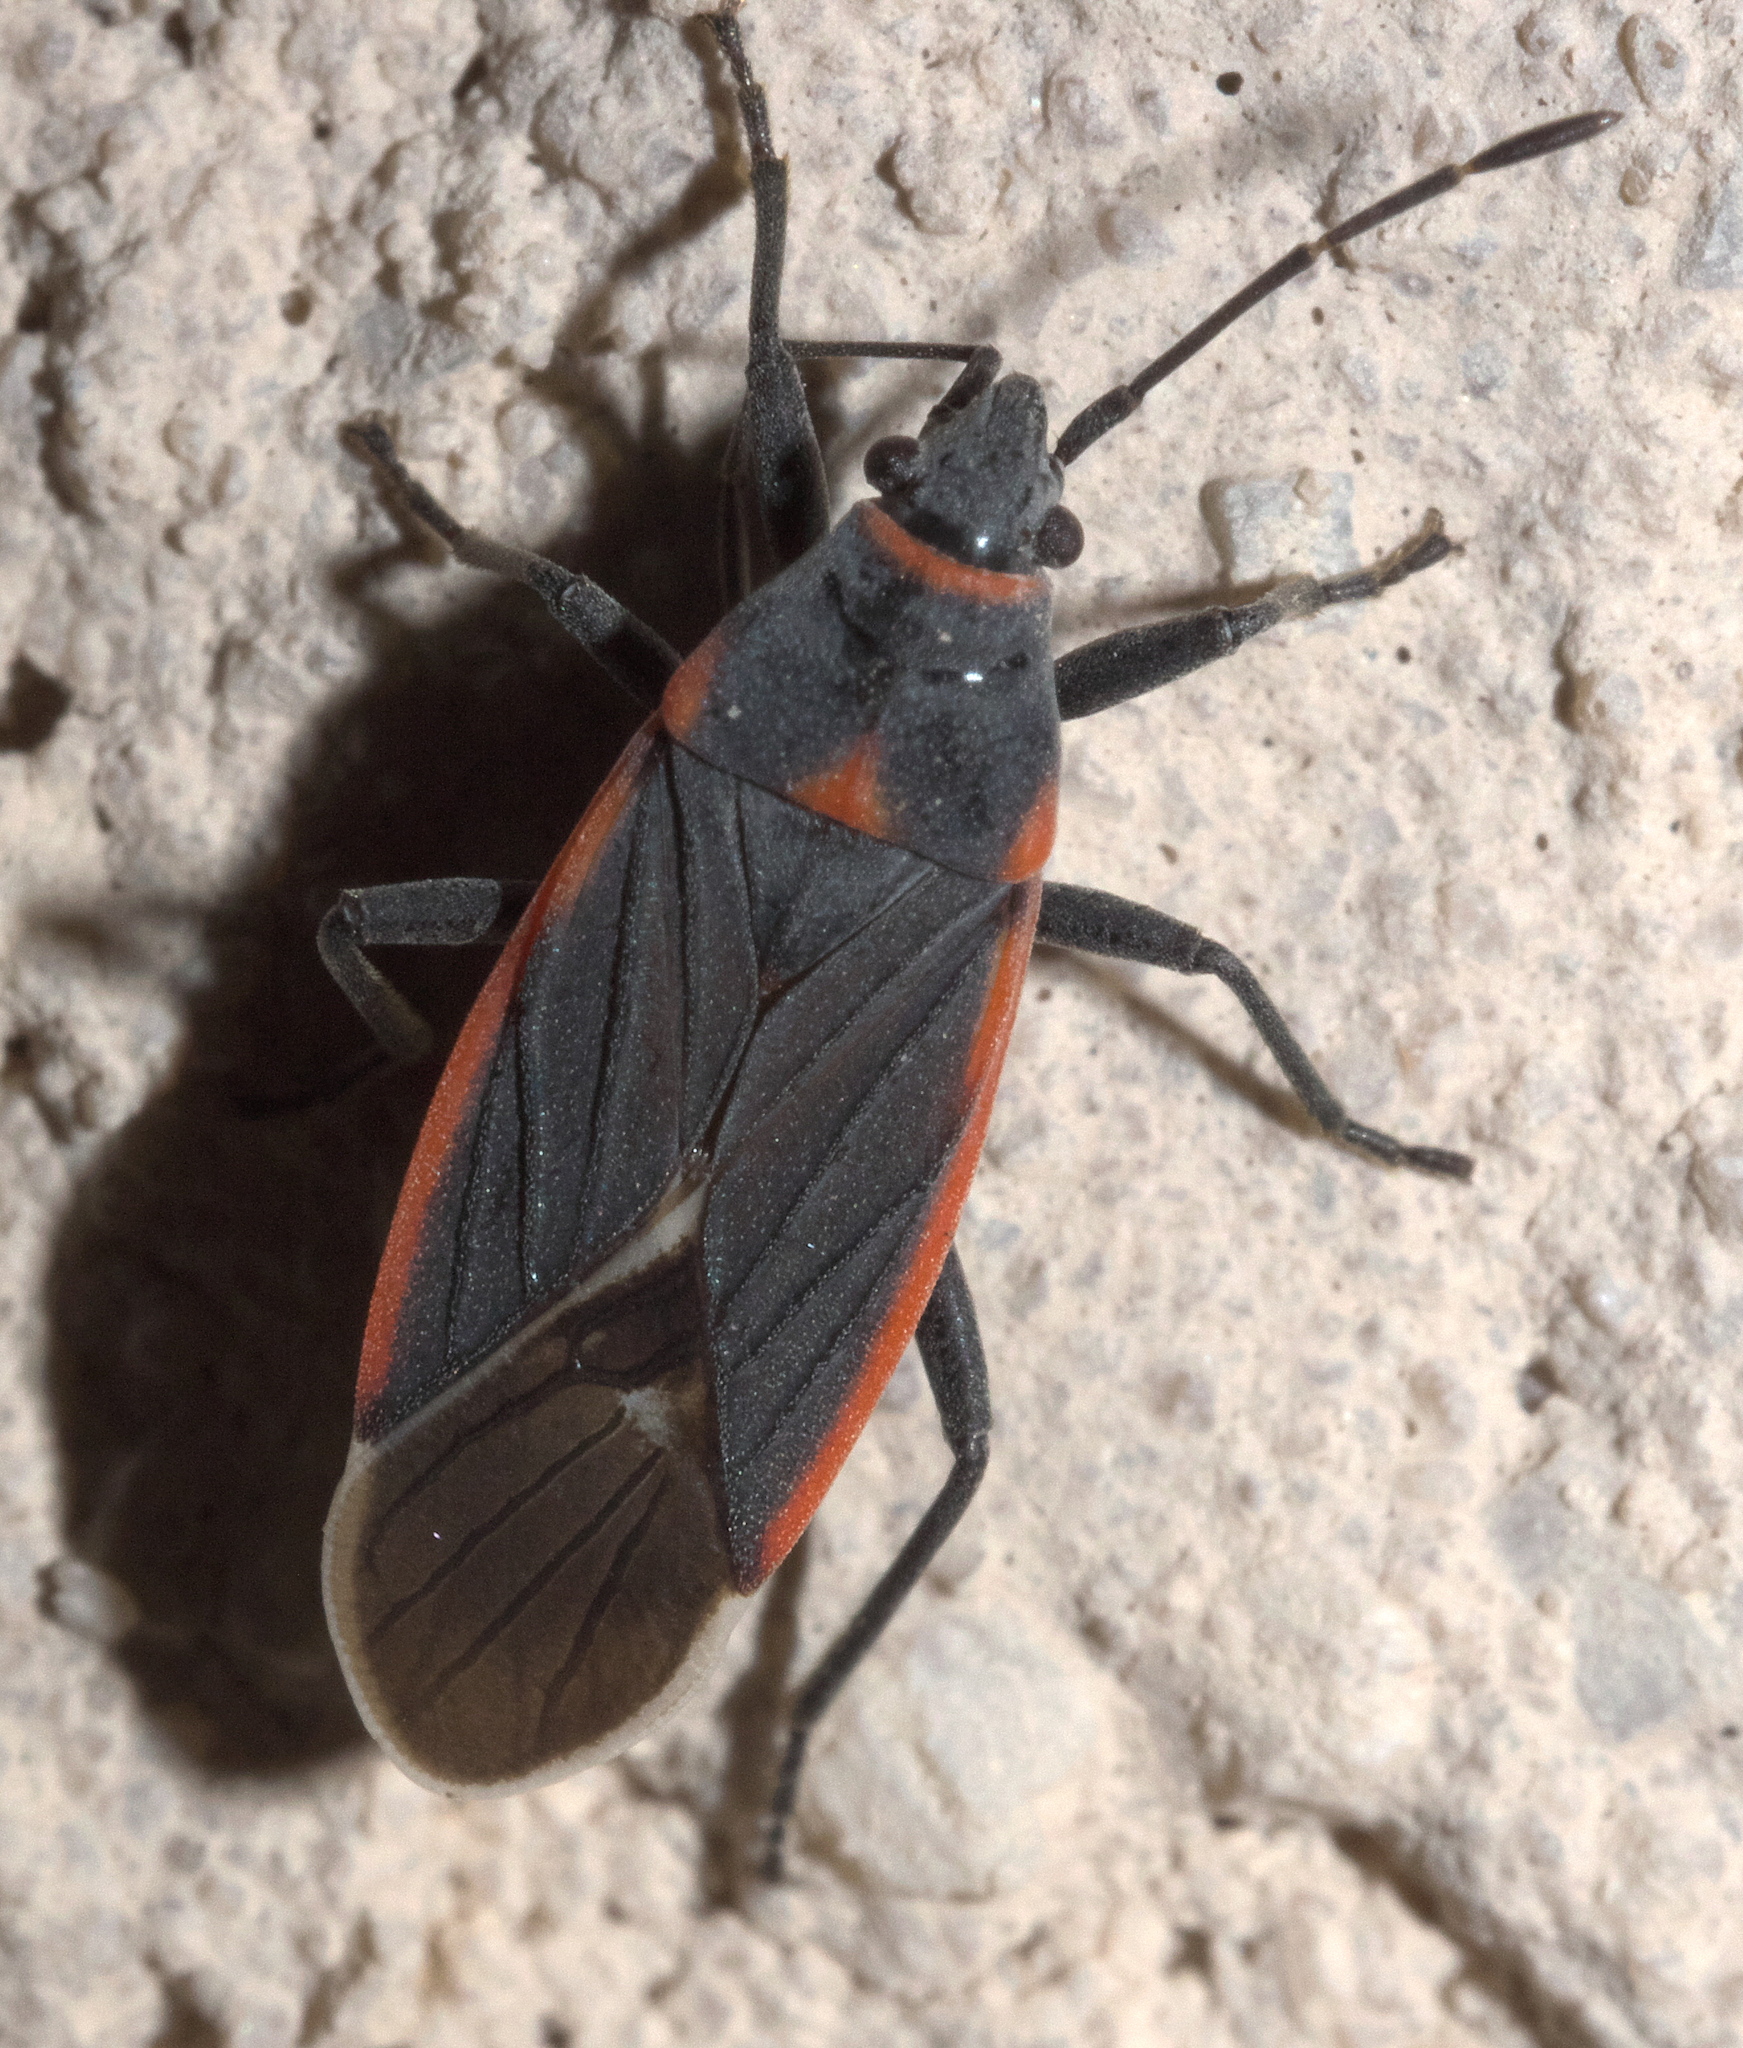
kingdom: Animalia
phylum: Arthropoda
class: Insecta
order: Hemiptera
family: Lygaeidae
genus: Melacoryphus
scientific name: Melacoryphus lateralis
